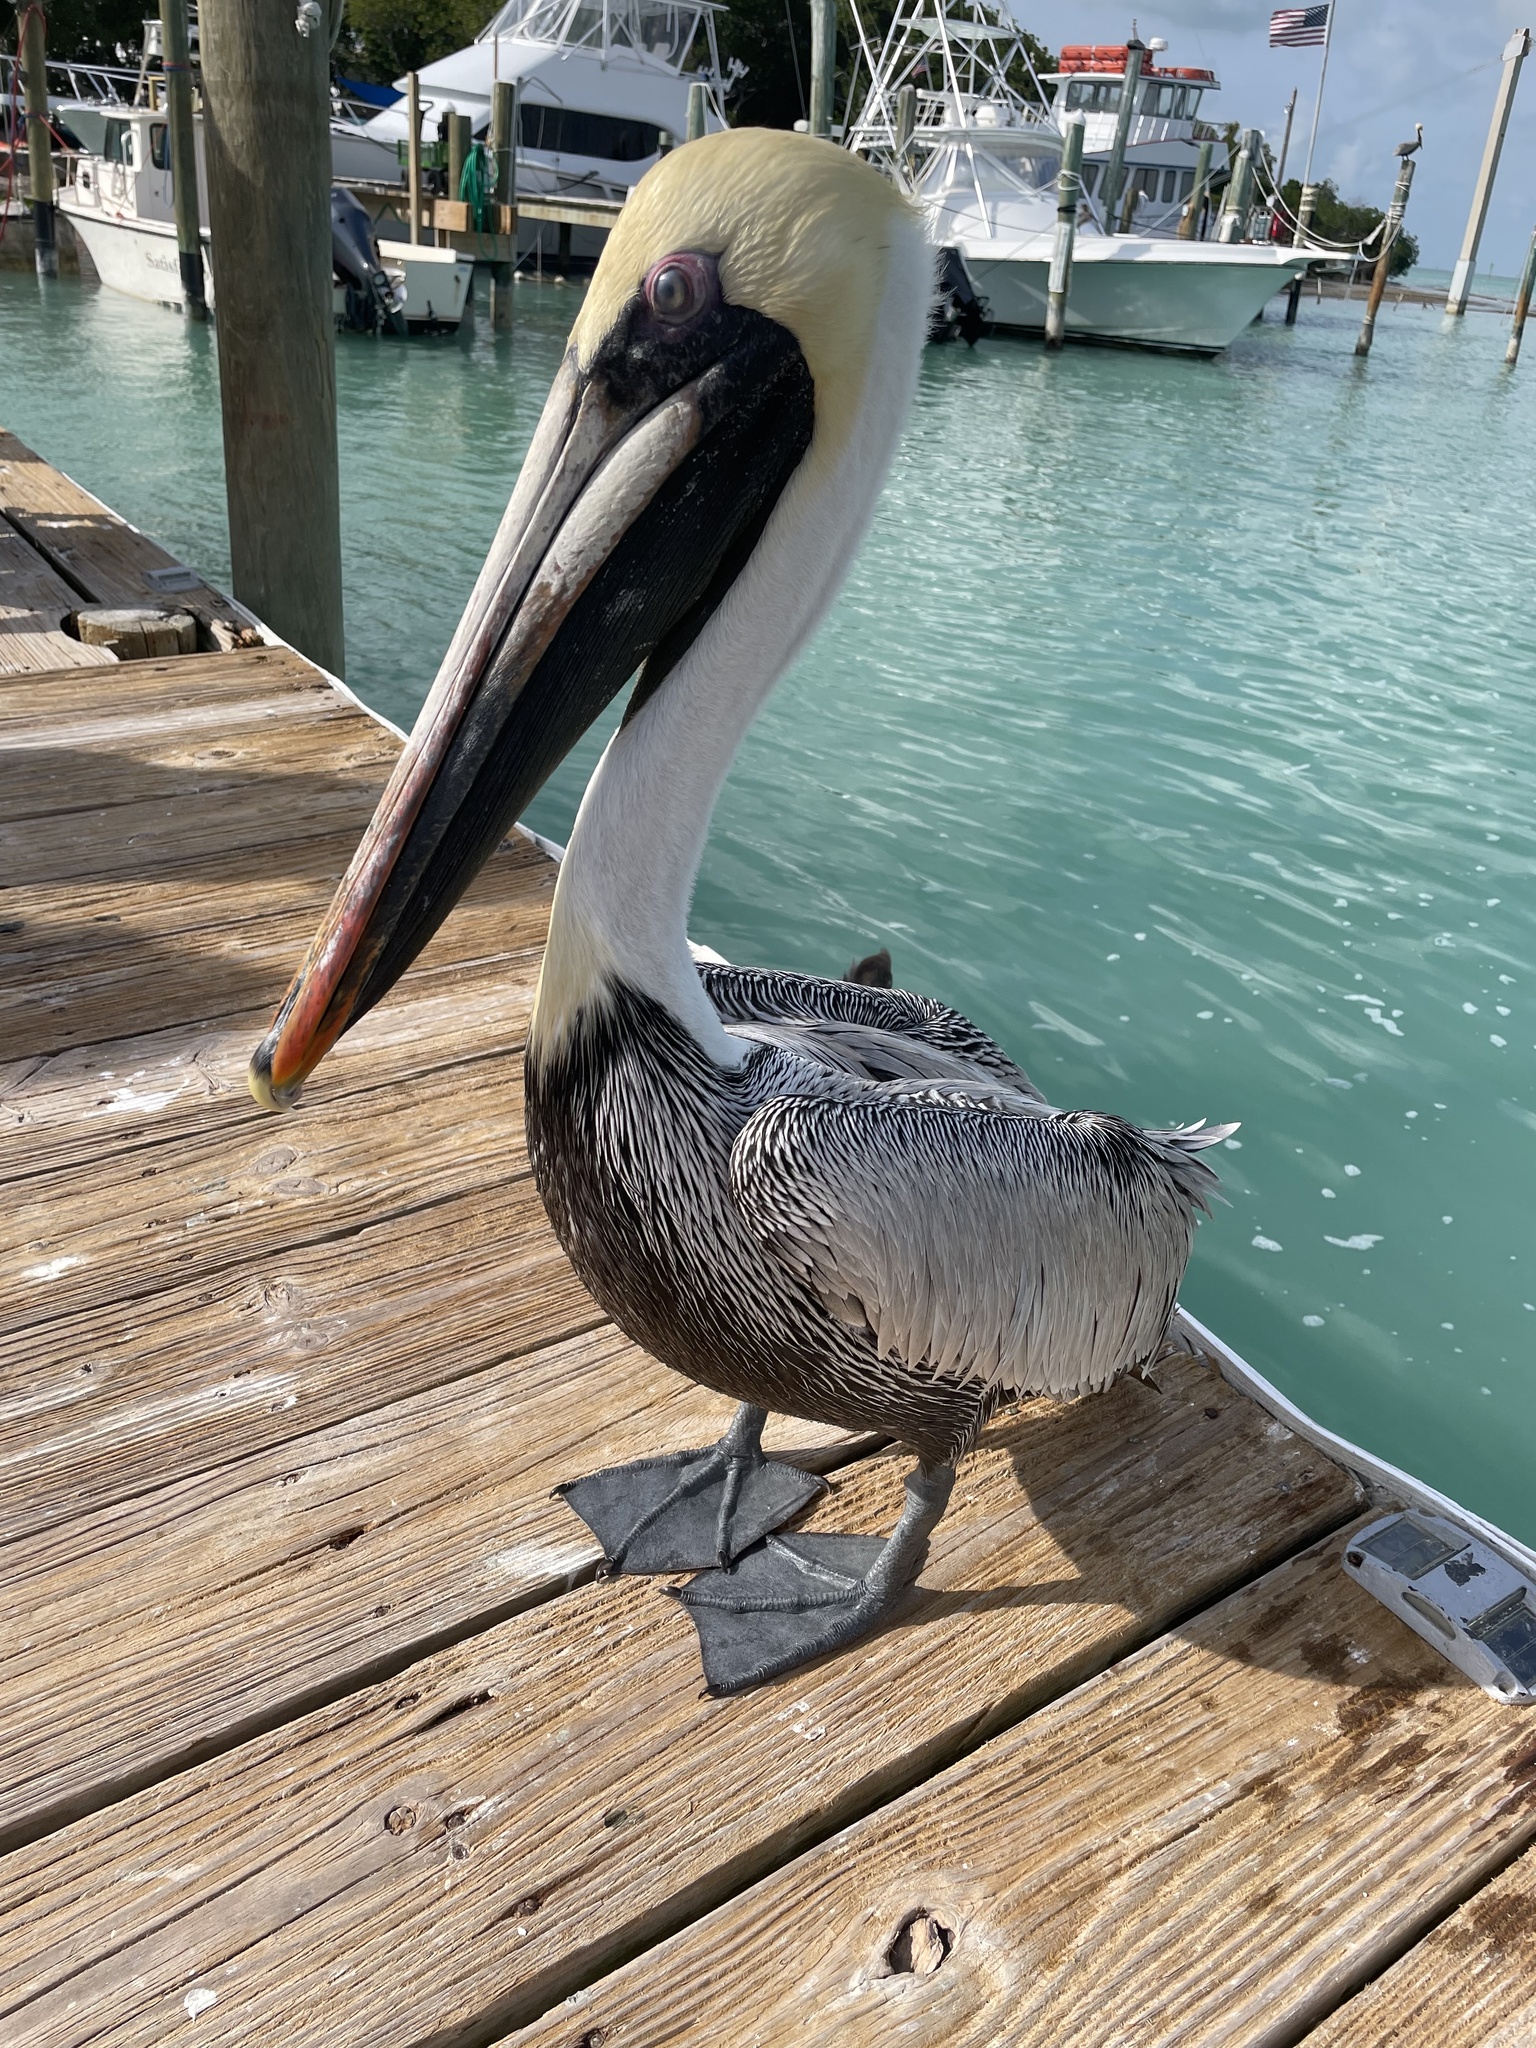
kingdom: Animalia
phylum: Chordata
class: Aves
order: Pelecaniformes
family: Pelecanidae
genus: Pelecanus
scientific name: Pelecanus occidentalis
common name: Brown pelican
